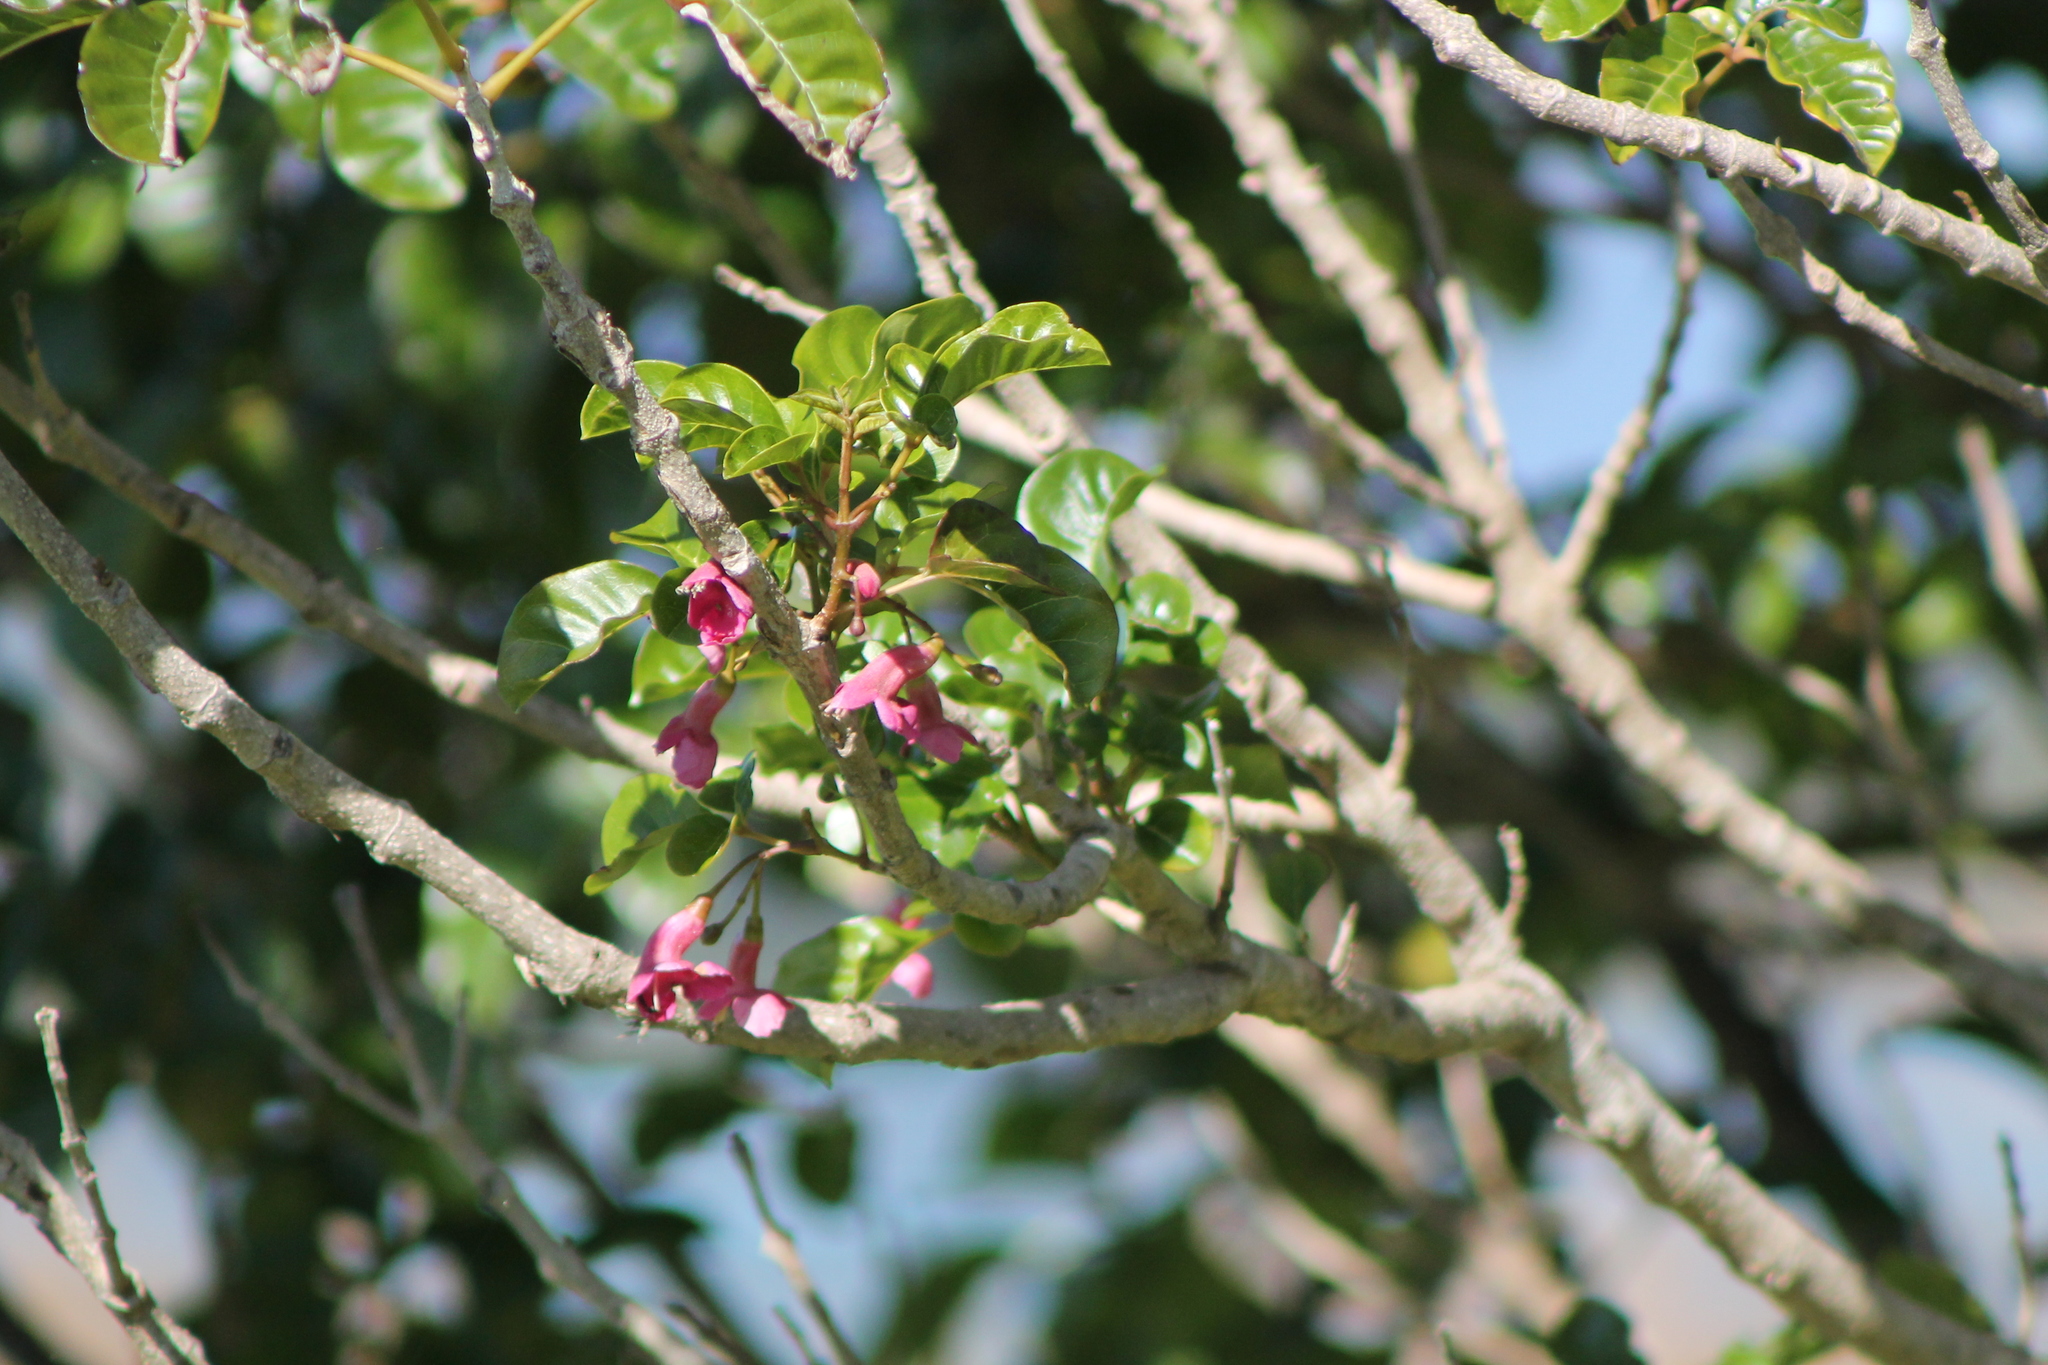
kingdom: Plantae
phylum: Tracheophyta
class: Magnoliopsida
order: Lamiales
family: Lamiaceae
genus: Vitex
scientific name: Vitex lucens
